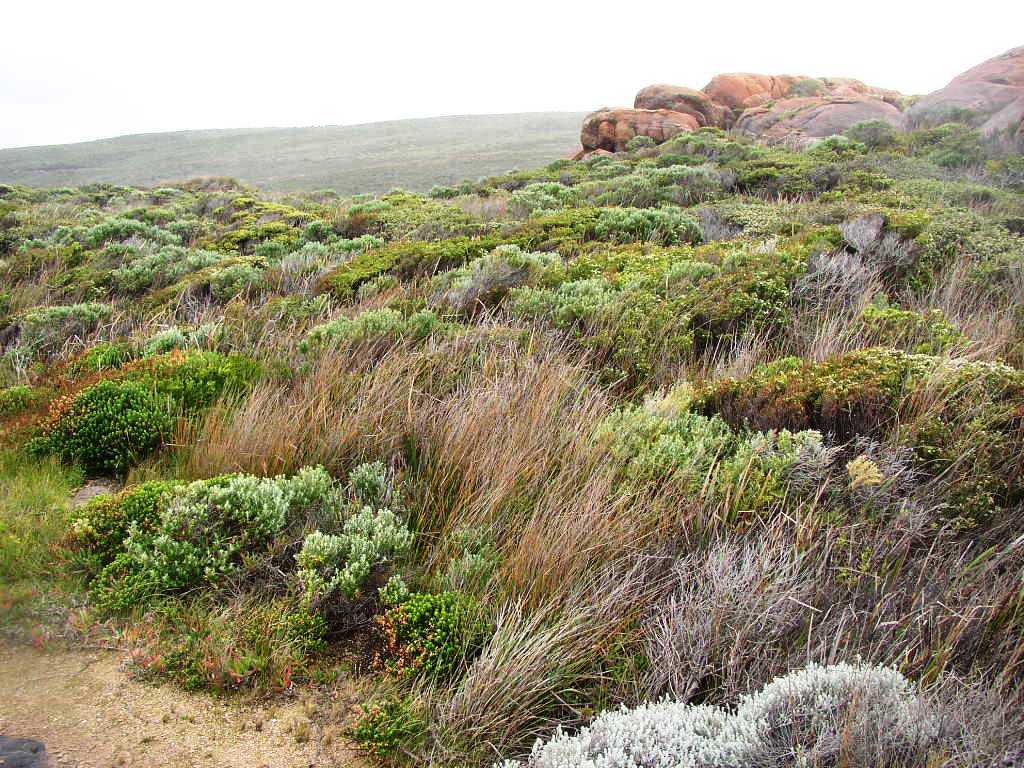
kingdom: Plantae
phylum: Tracheophyta
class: Liliopsida
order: Poales
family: Cyperaceae
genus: Ficinia
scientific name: Ficinia nodosa
